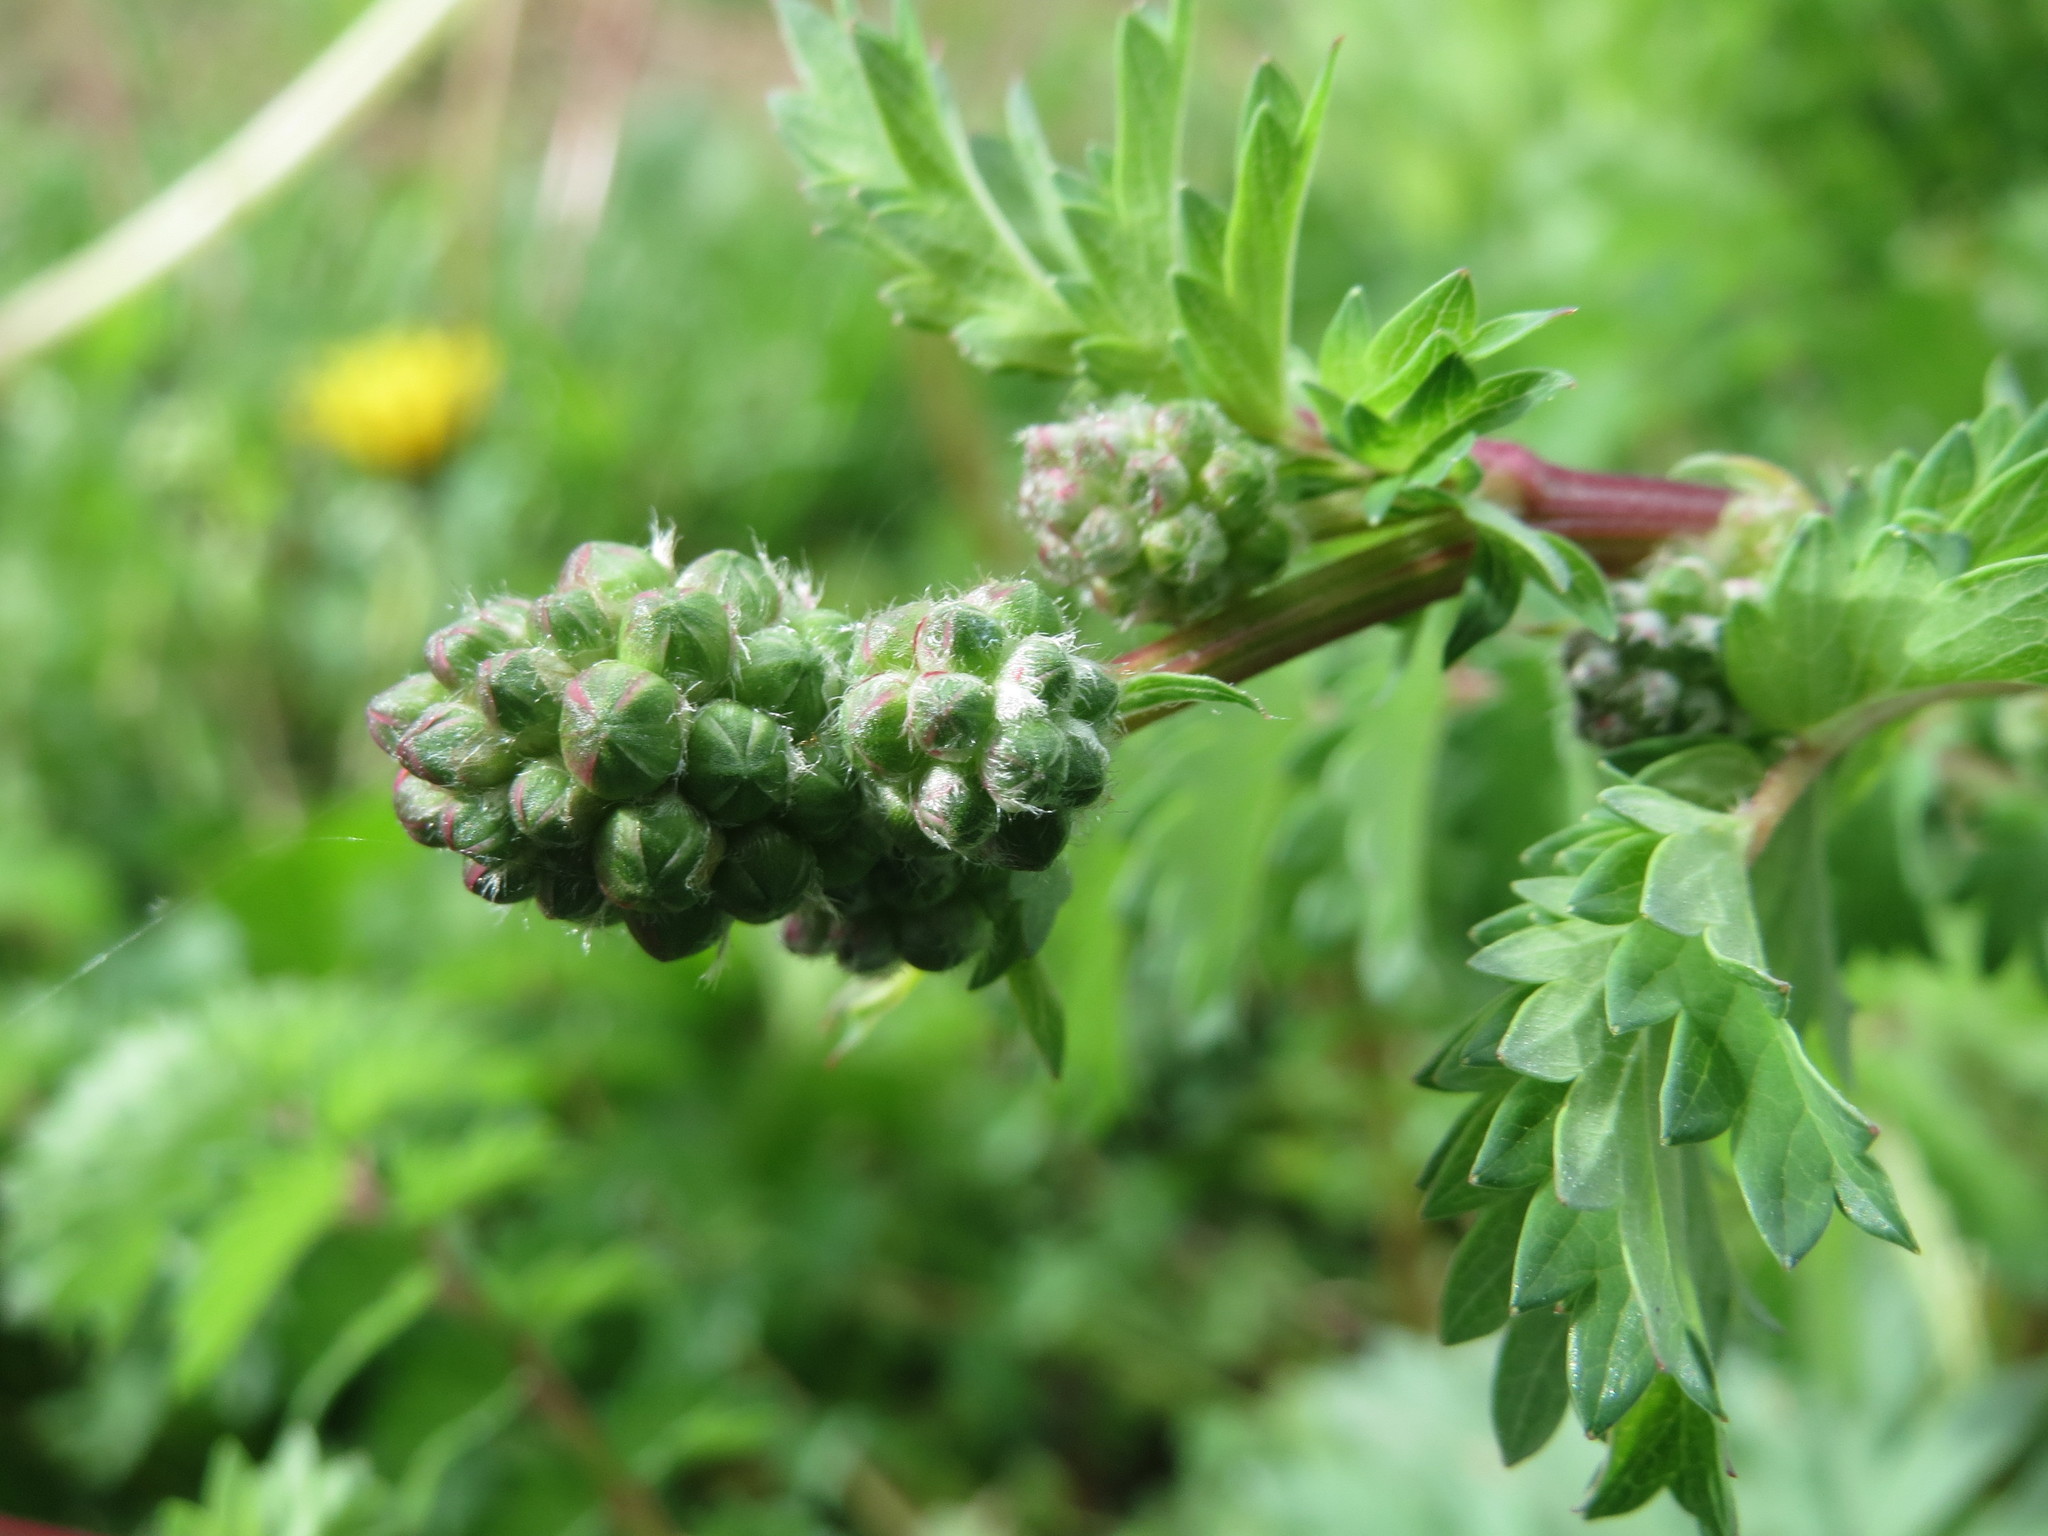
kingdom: Plantae
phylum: Tracheophyta
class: Magnoliopsida
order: Rosales
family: Rosaceae
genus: Poterium
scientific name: Poterium sanguisorba
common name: Salad burnet
